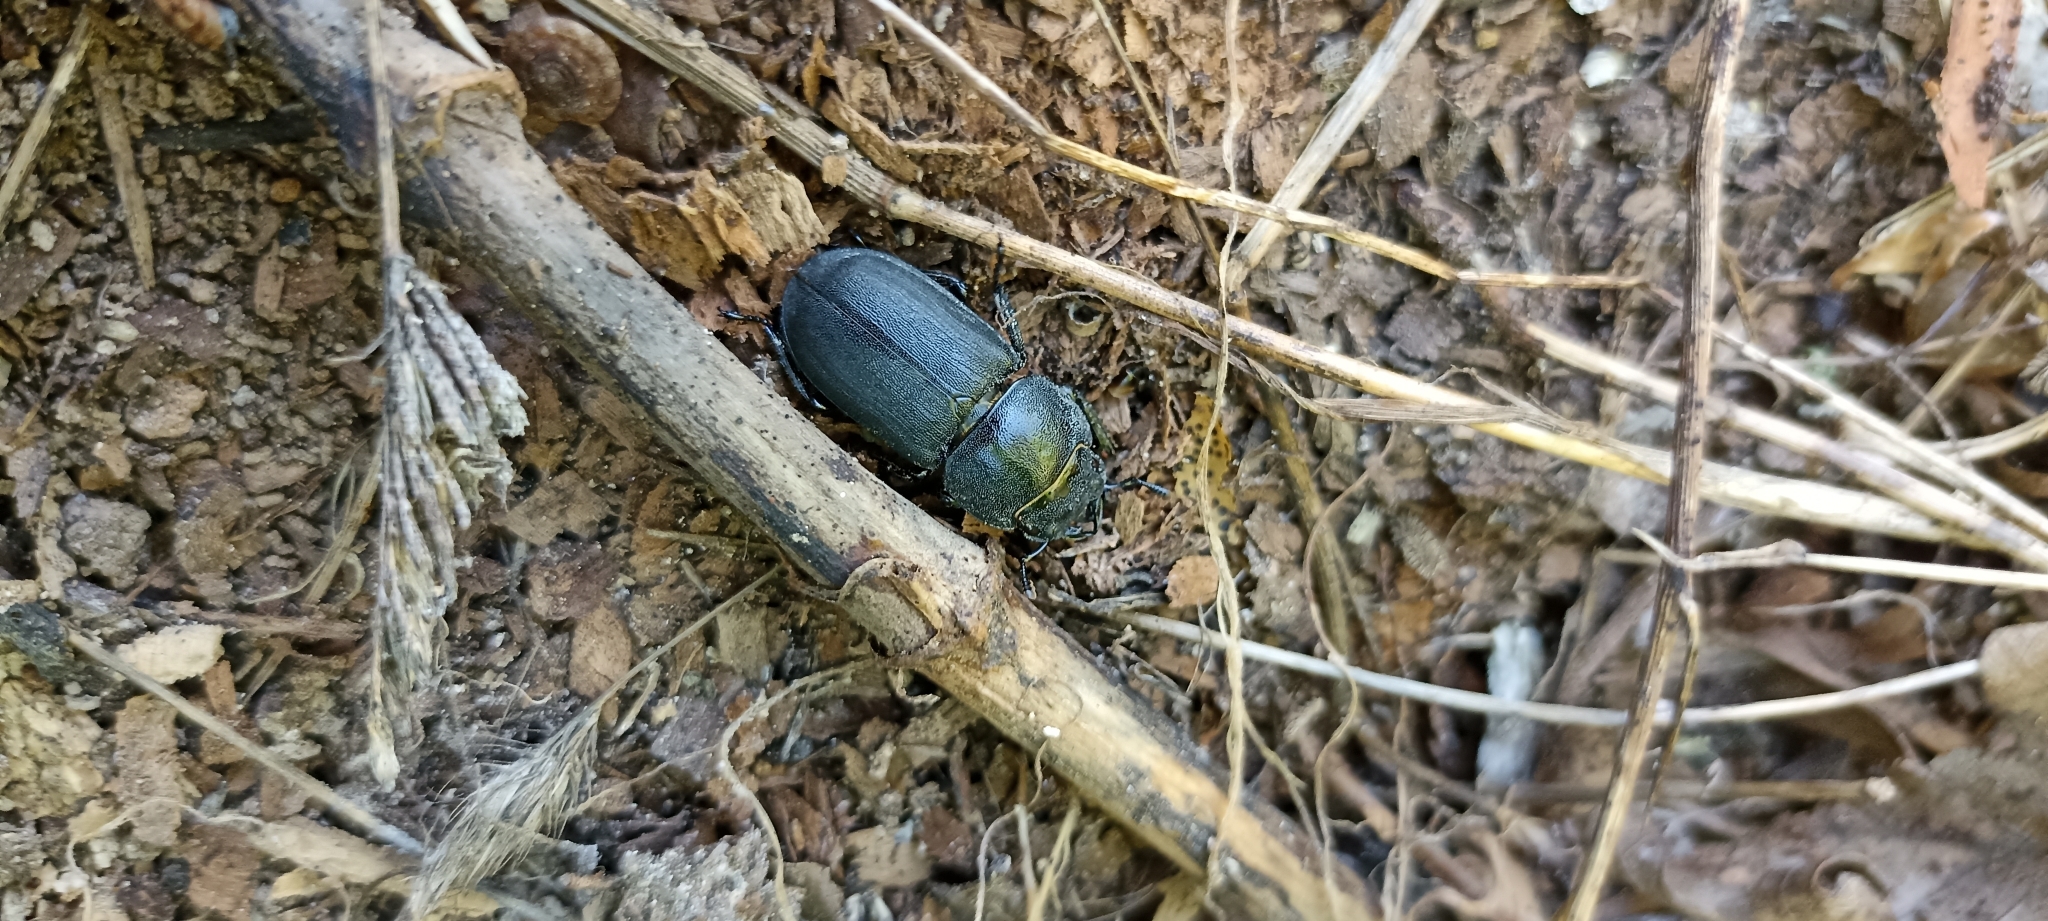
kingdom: Animalia
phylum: Arthropoda
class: Insecta
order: Coleoptera
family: Lucanidae
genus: Dorcus
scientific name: Dorcus parallelipipedus
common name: Lesser stag beetle
